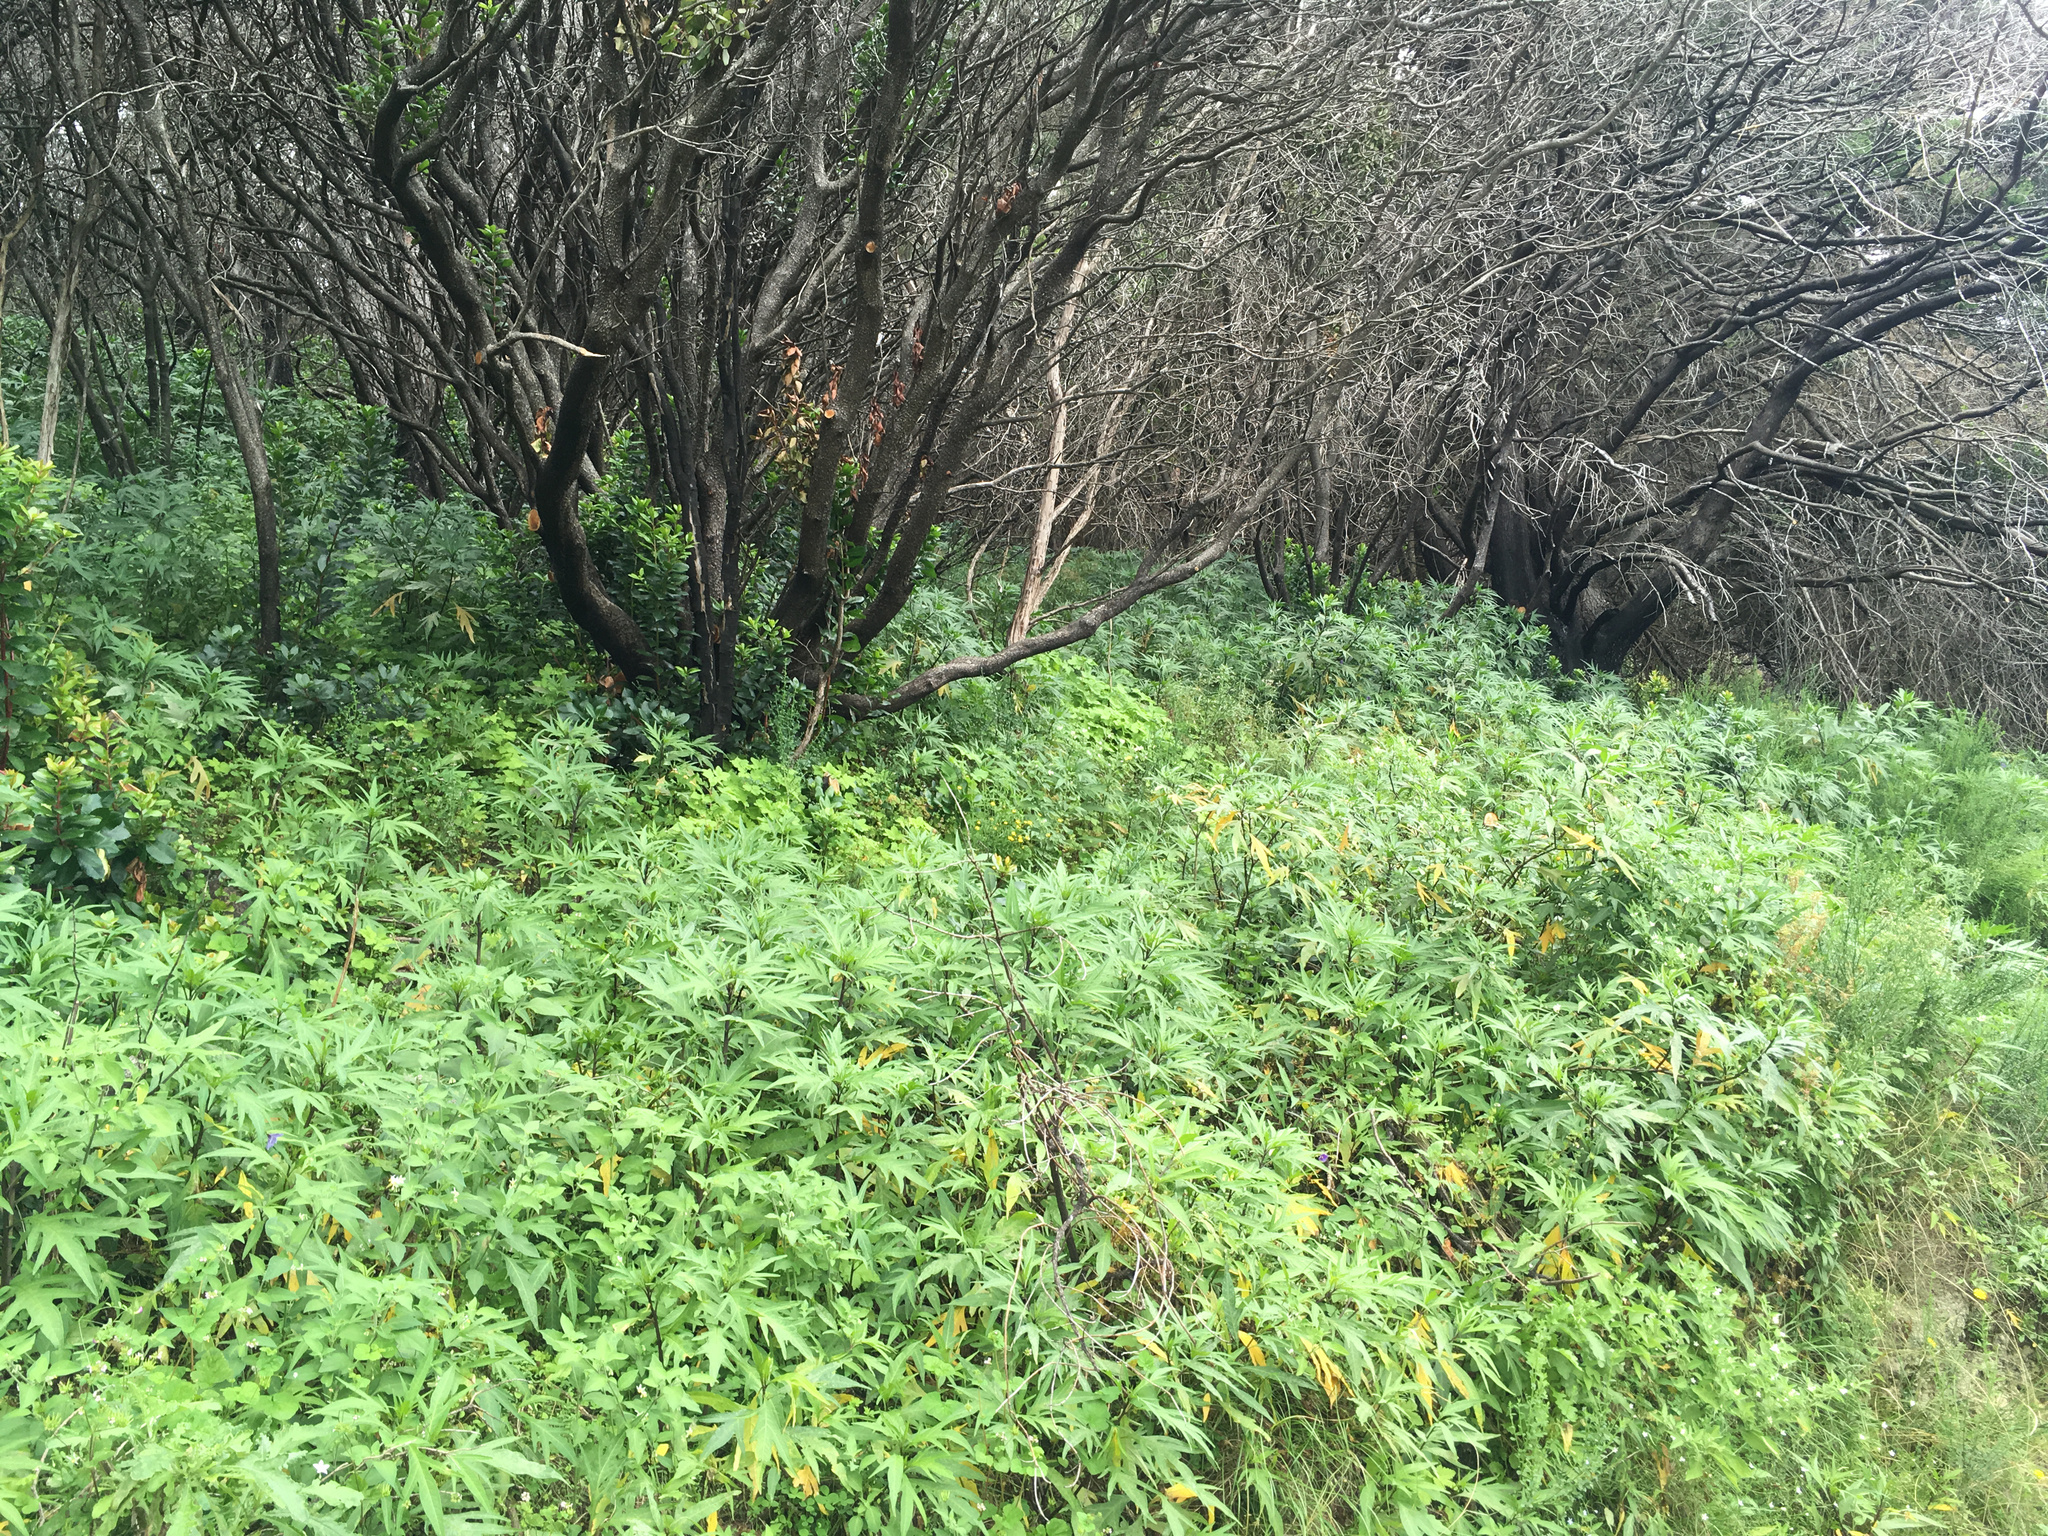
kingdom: Plantae
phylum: Tracheophyta
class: Magnoliopsida
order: Solanales
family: Solanaceae
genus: Solanum
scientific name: Solanum laciniatum
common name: Kangaroo-apple
